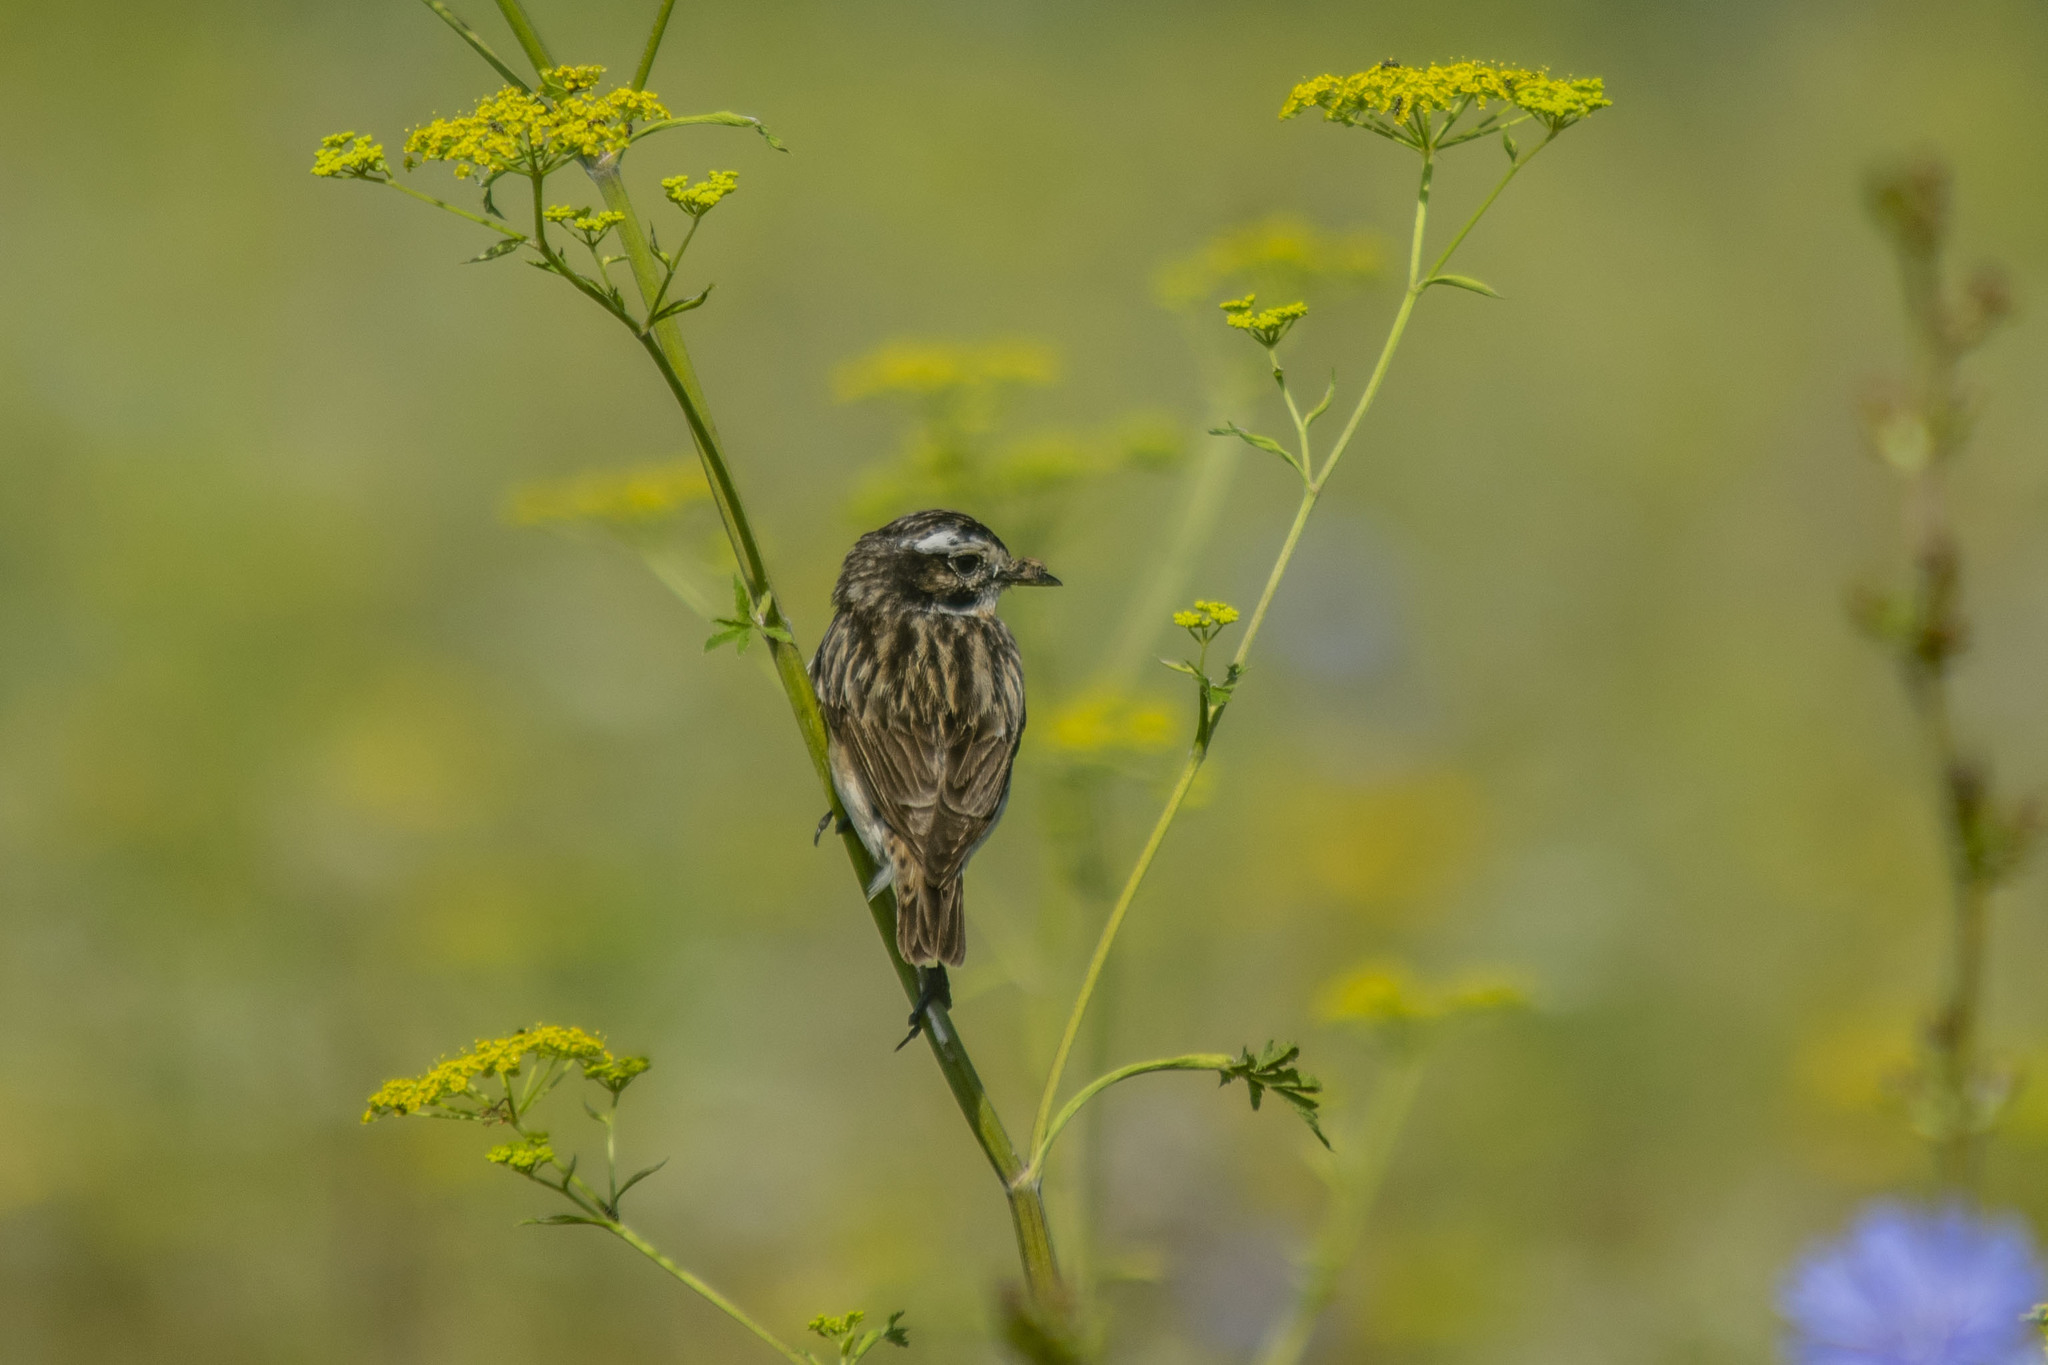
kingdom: Animalia
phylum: Chordata
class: Aves
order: Passeriformes
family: Muscicapidae
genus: Saxicola
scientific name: Saxicola rubetra
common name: Whinchat
